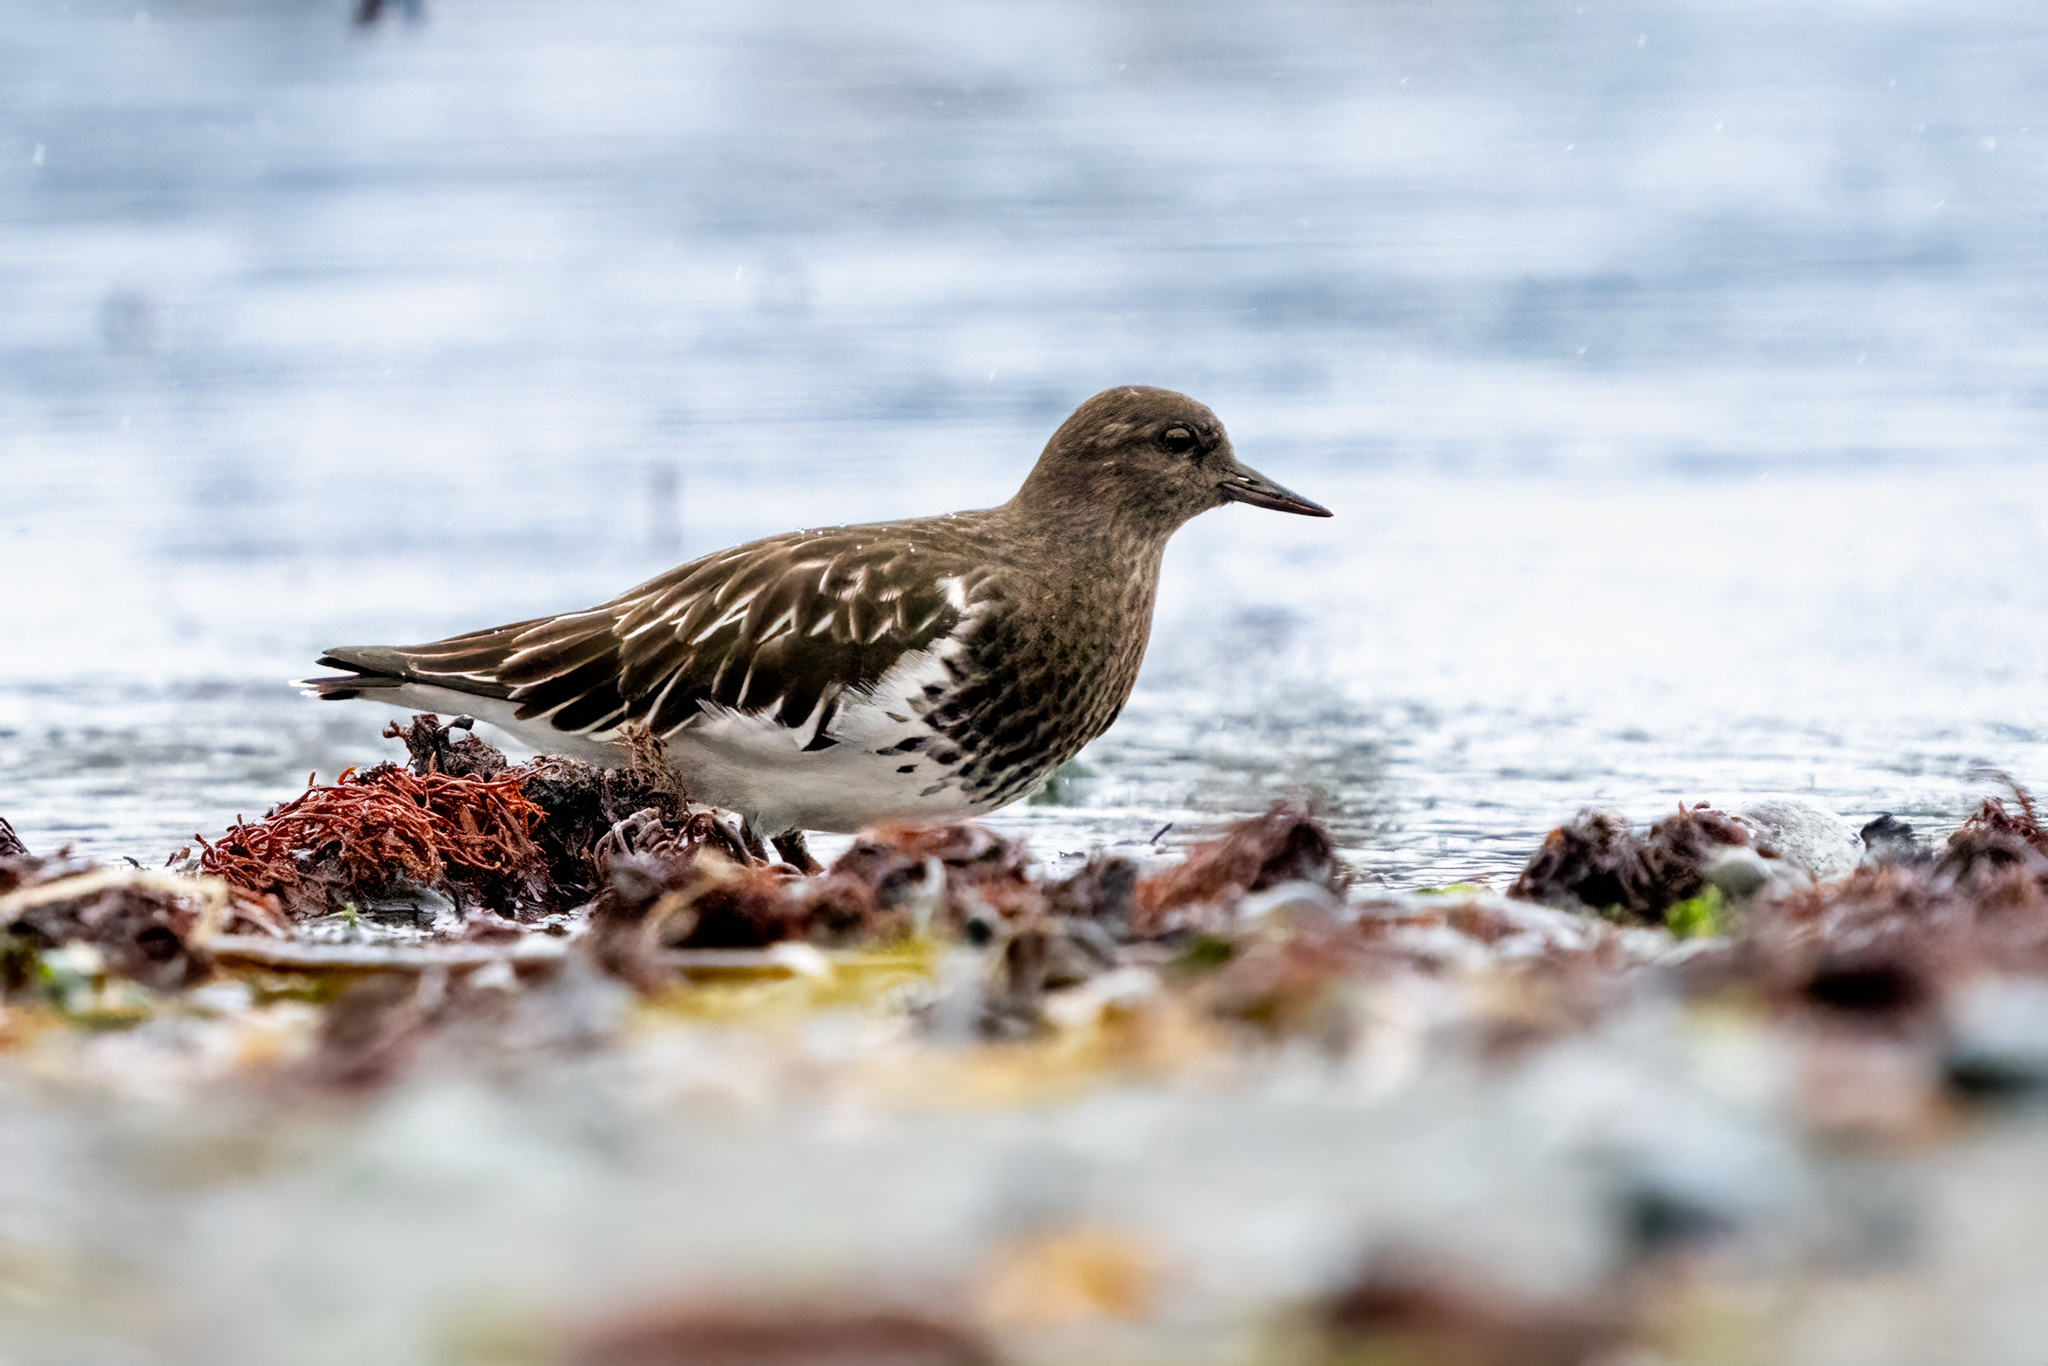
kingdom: Animalia
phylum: Chordata
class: Aves
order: Charadriiformes
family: Scolopacidae
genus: Arenaria
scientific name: Arenaria melanocephala
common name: Black turnstone
